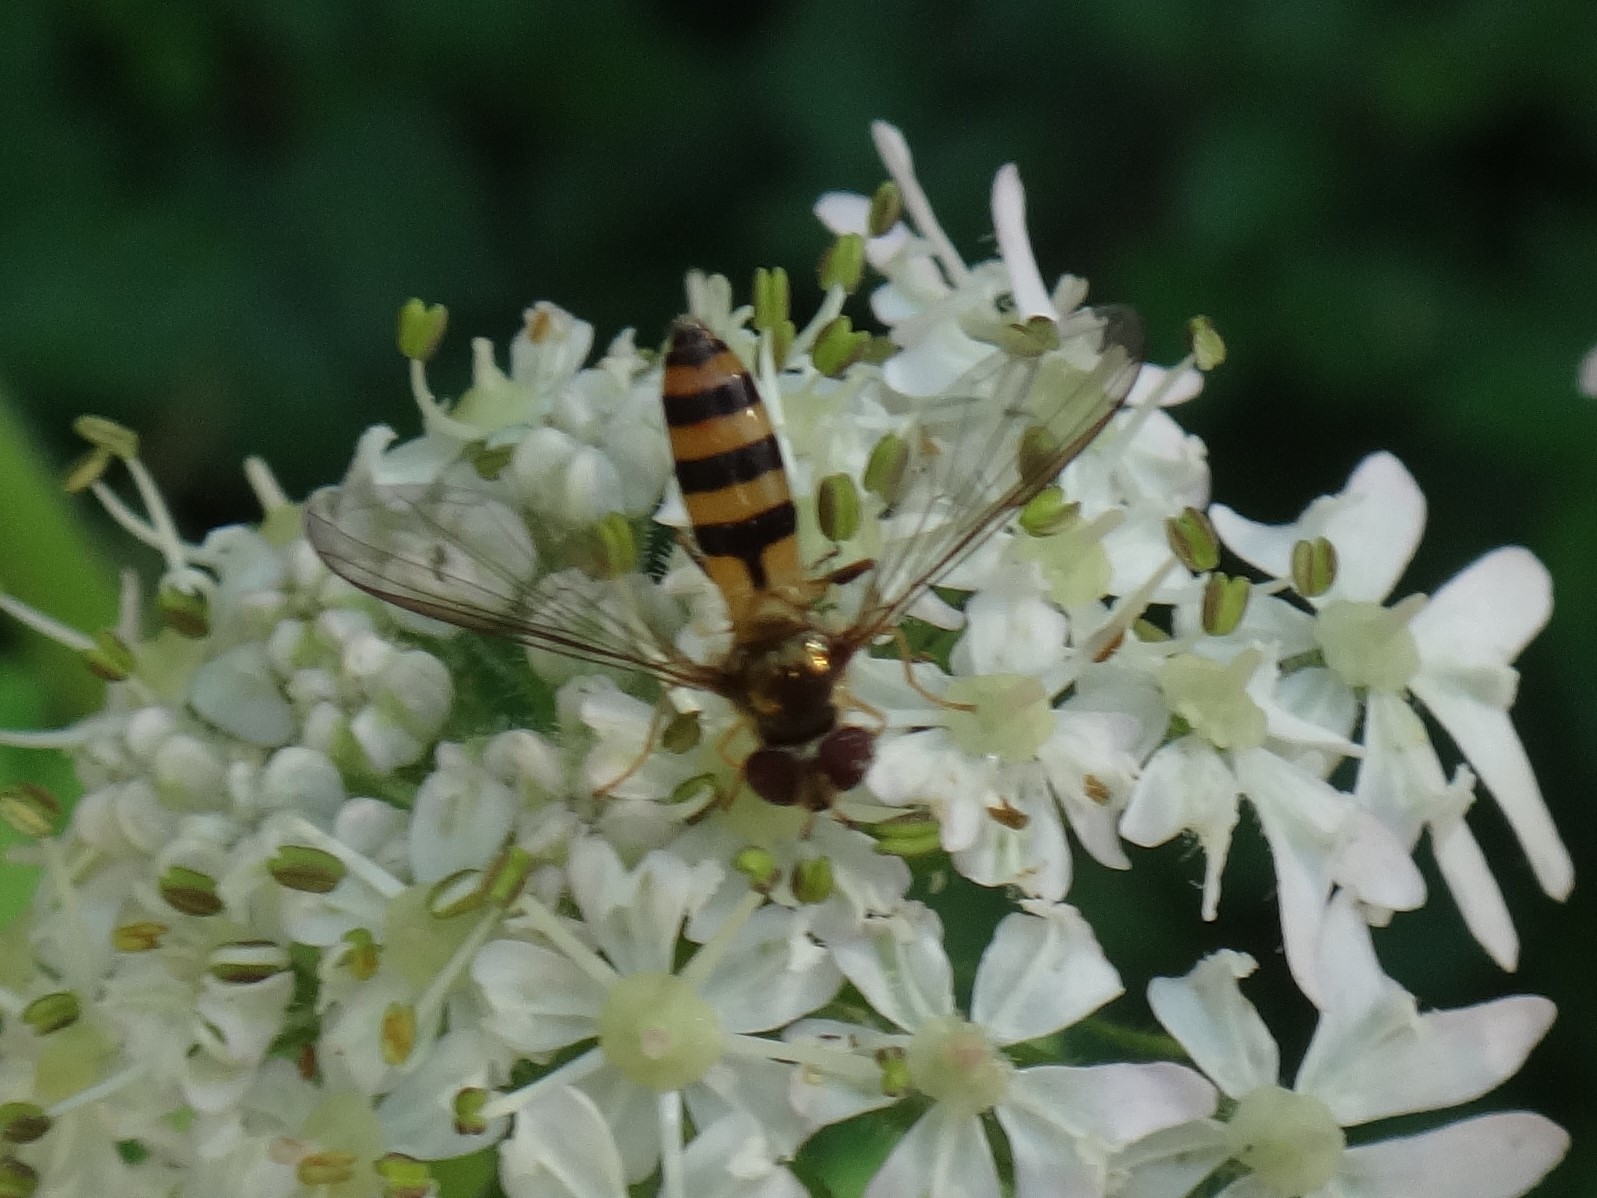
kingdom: Animalia
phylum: Arthropoda
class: Insecta
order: Diptera
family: Syrphidae
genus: Meliscaeva
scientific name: Meliscaeva cinctella
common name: American thintail fly
